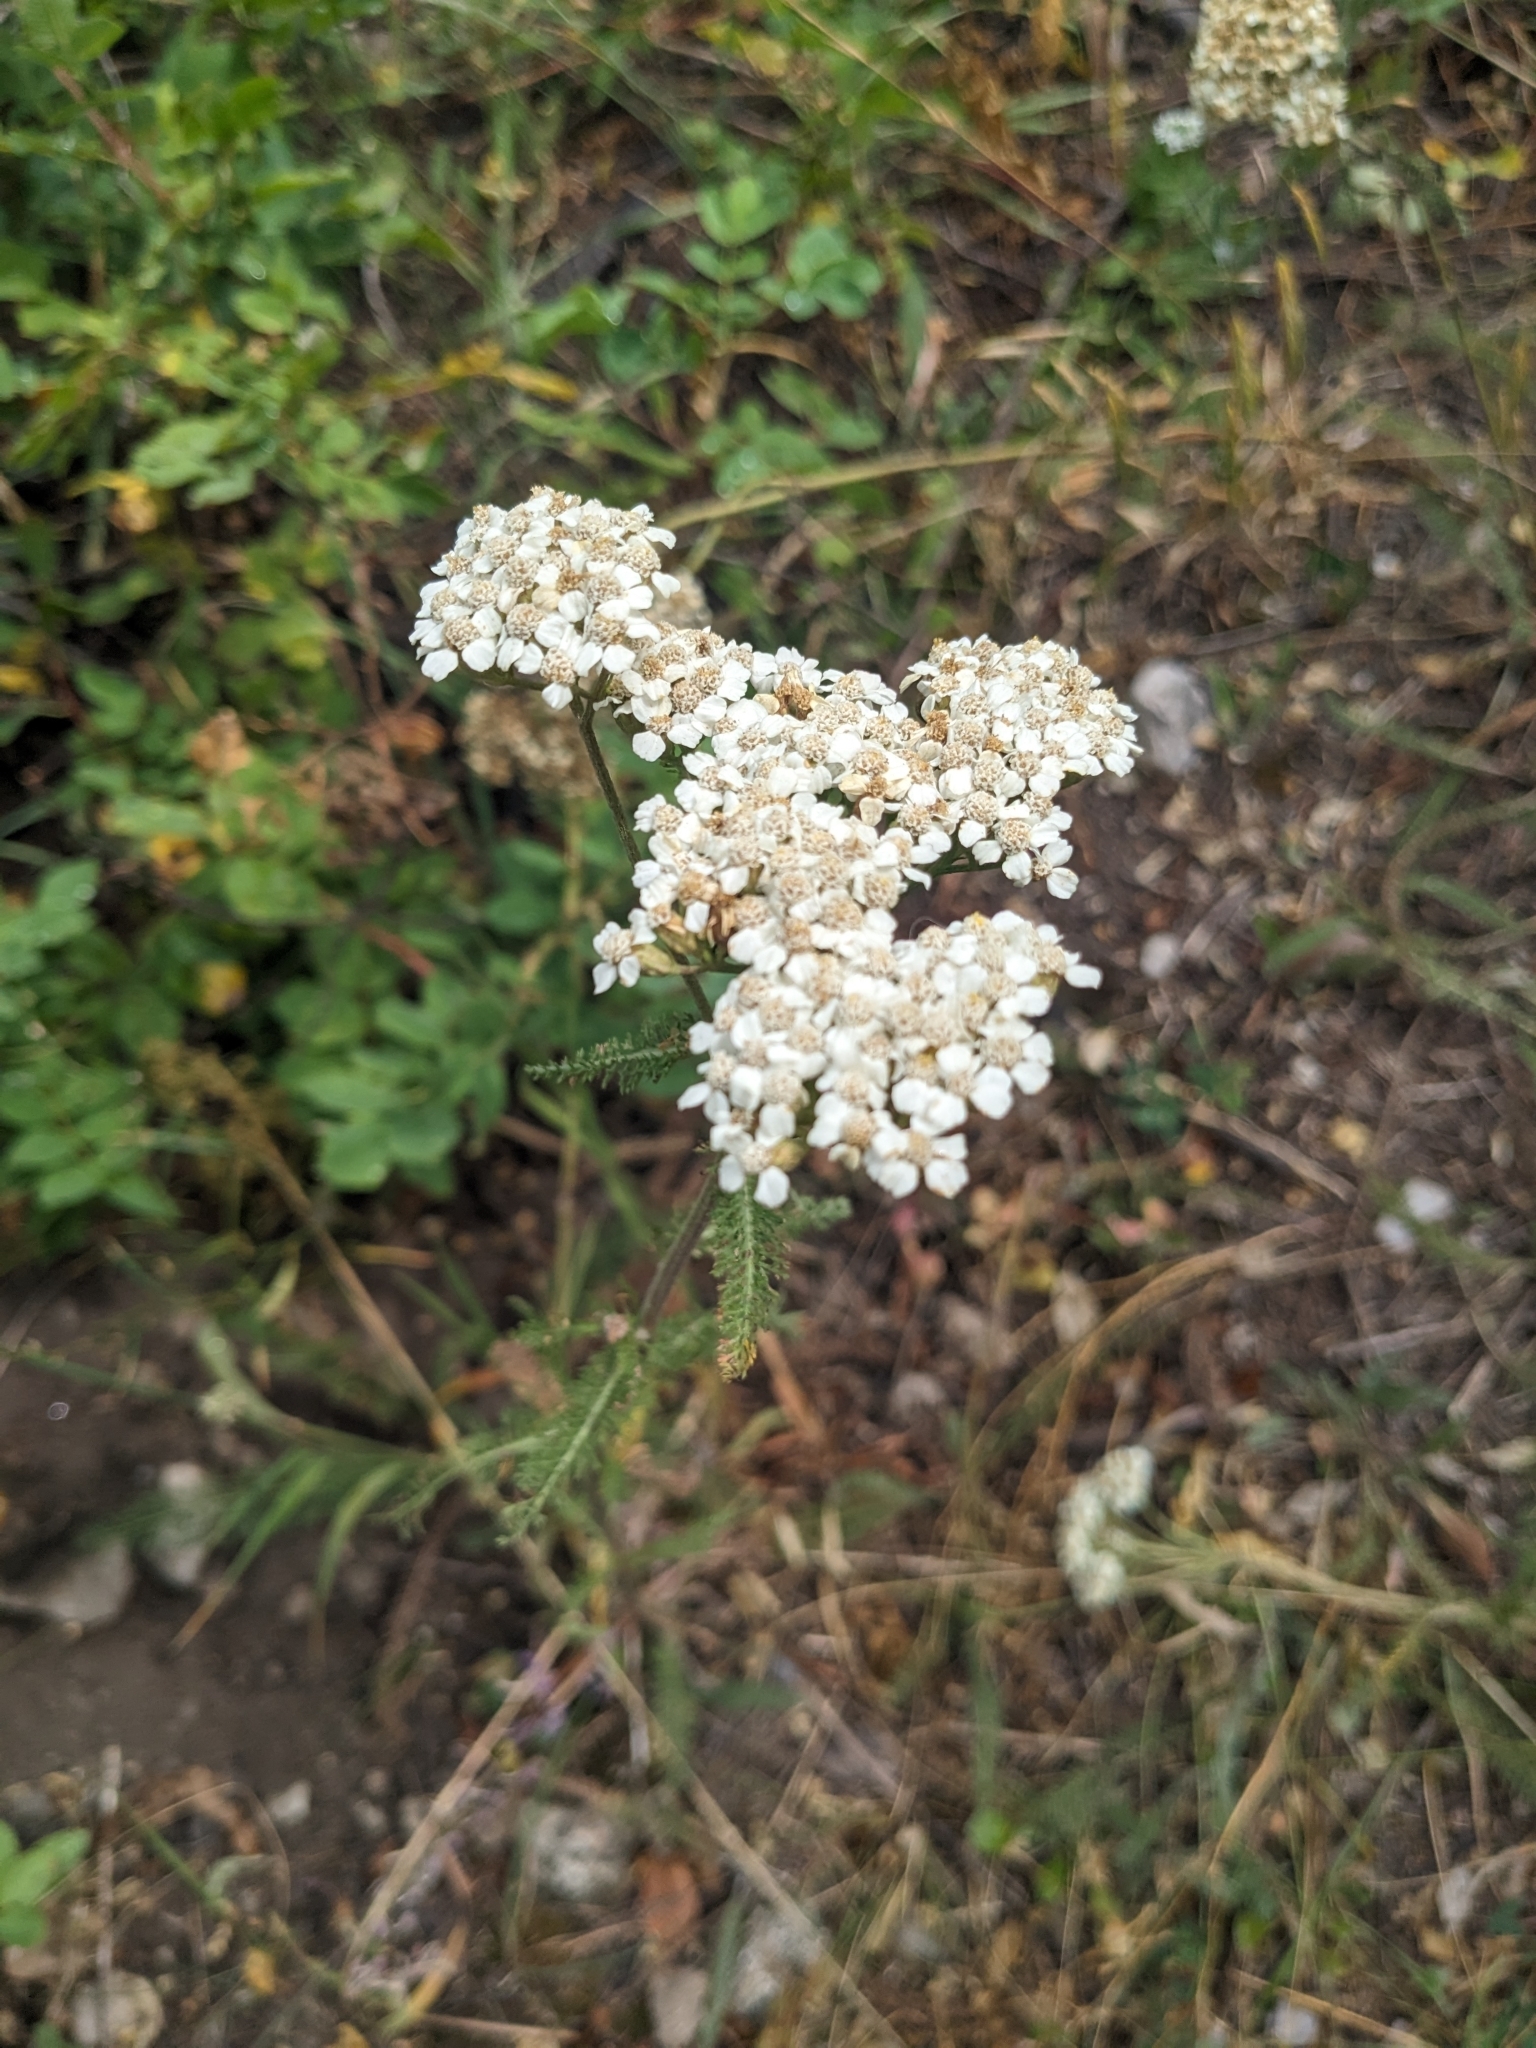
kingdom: Plantae
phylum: Tracheophyta
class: Magnoliopsida
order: Asterales
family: Asteraceae
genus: Achillea
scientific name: Achillea millefolium
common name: Yarrow
